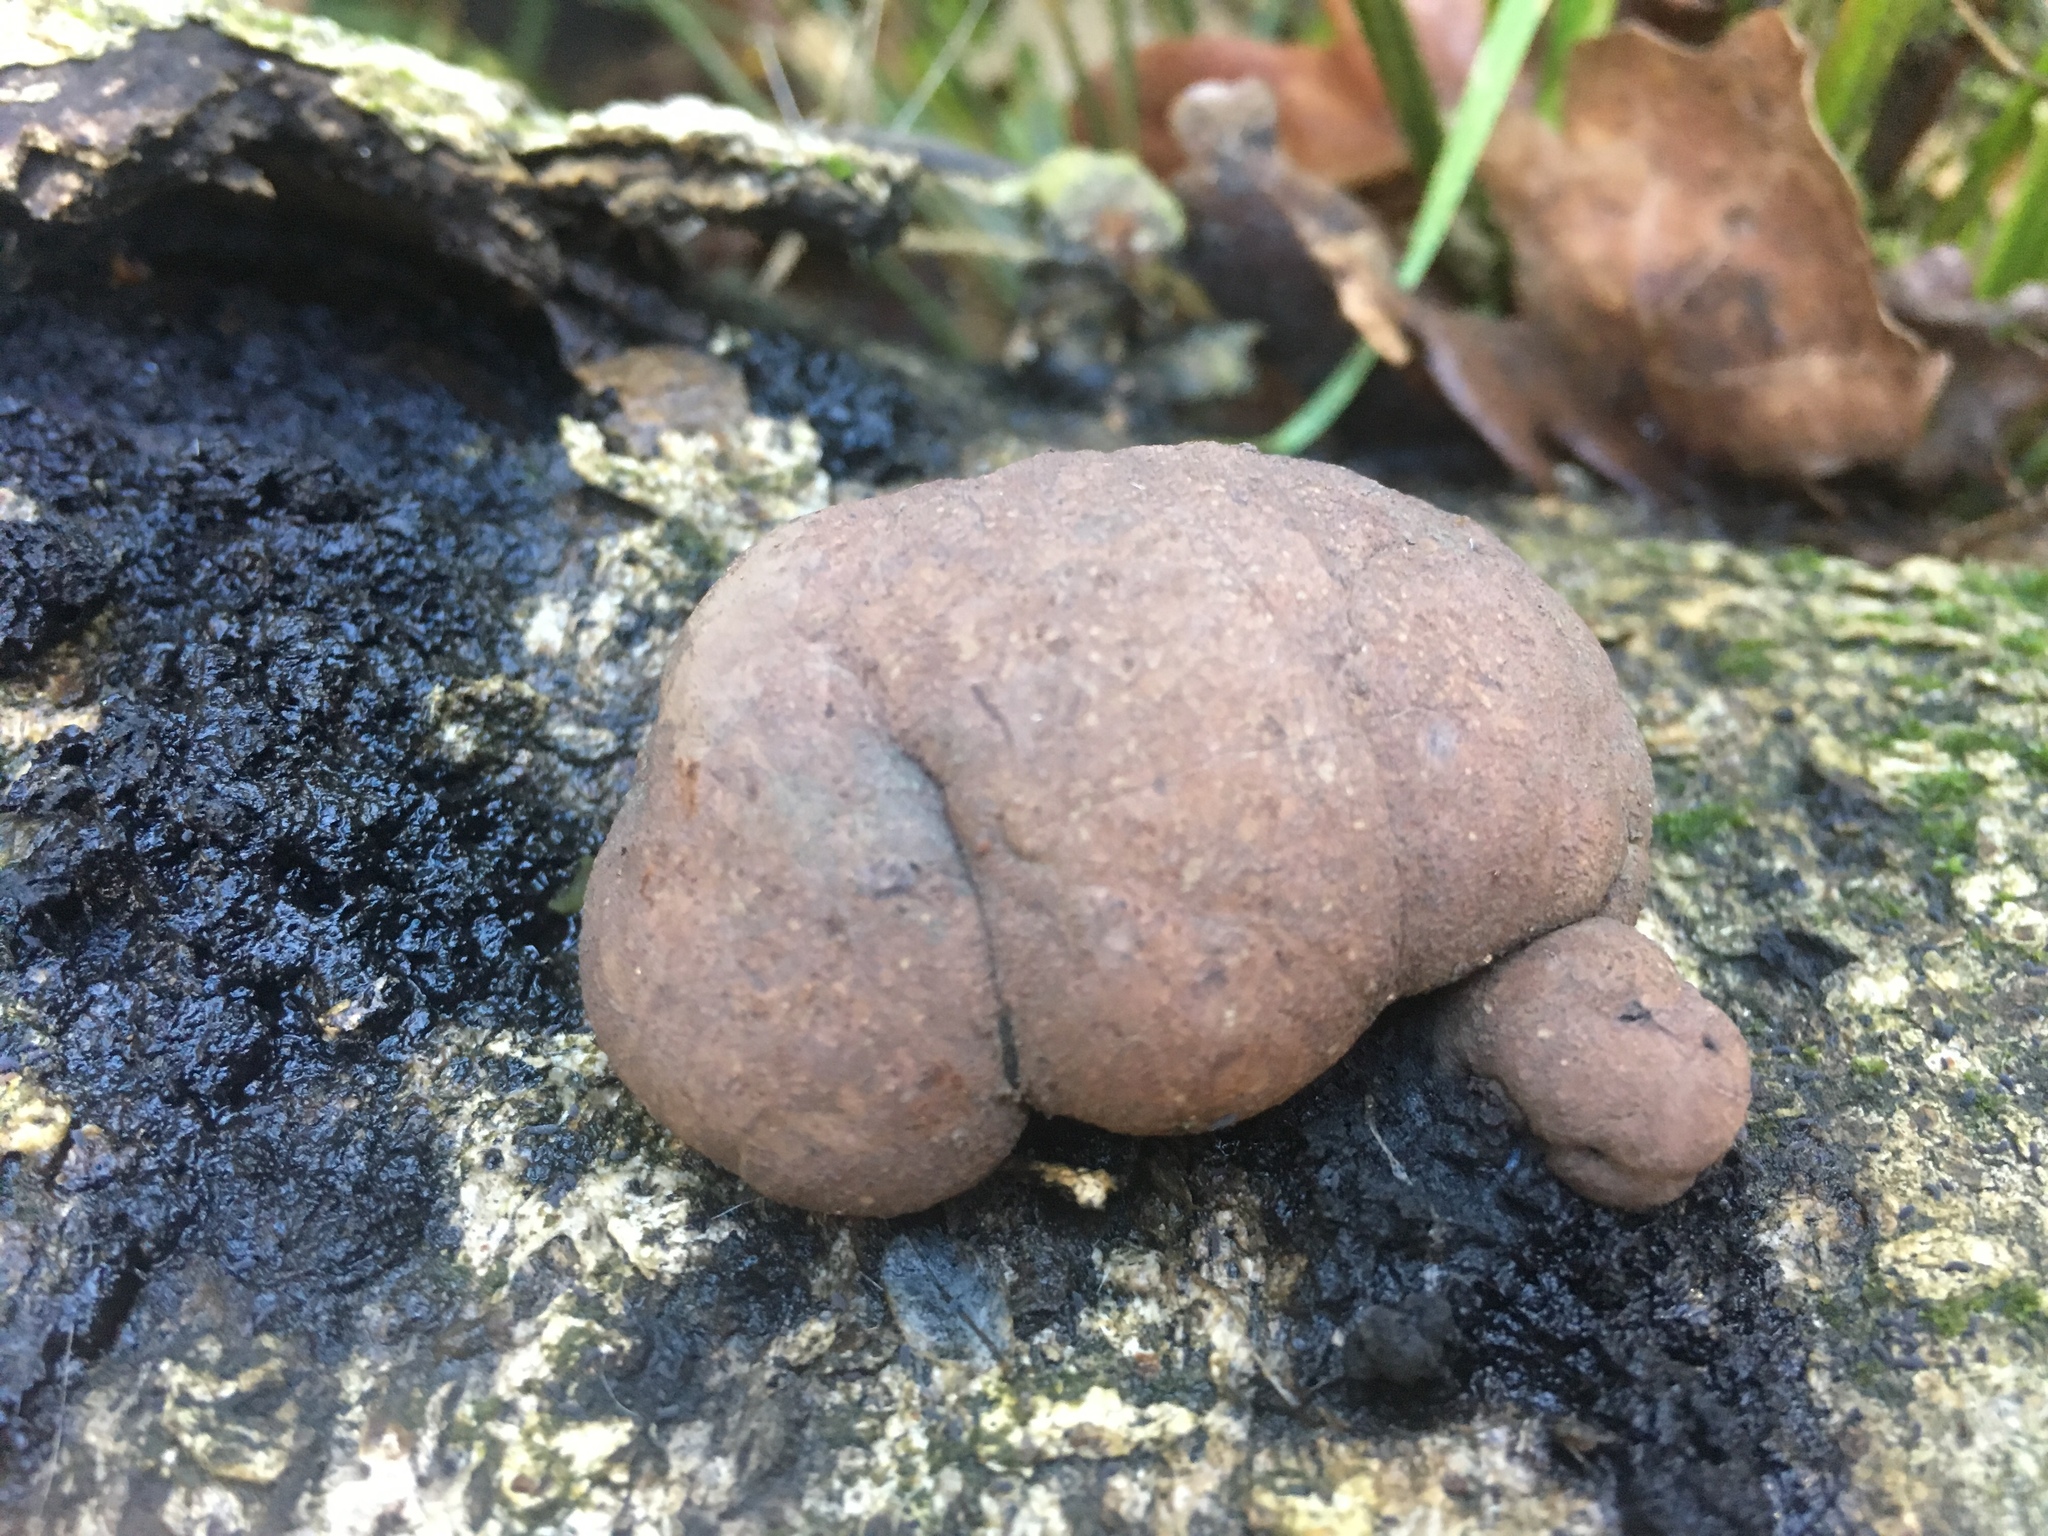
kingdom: Fungi
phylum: Ascomycota
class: Sordariomycetes
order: Xylariales
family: Hypoxylaceae
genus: Daldinia
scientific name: Daldinia
